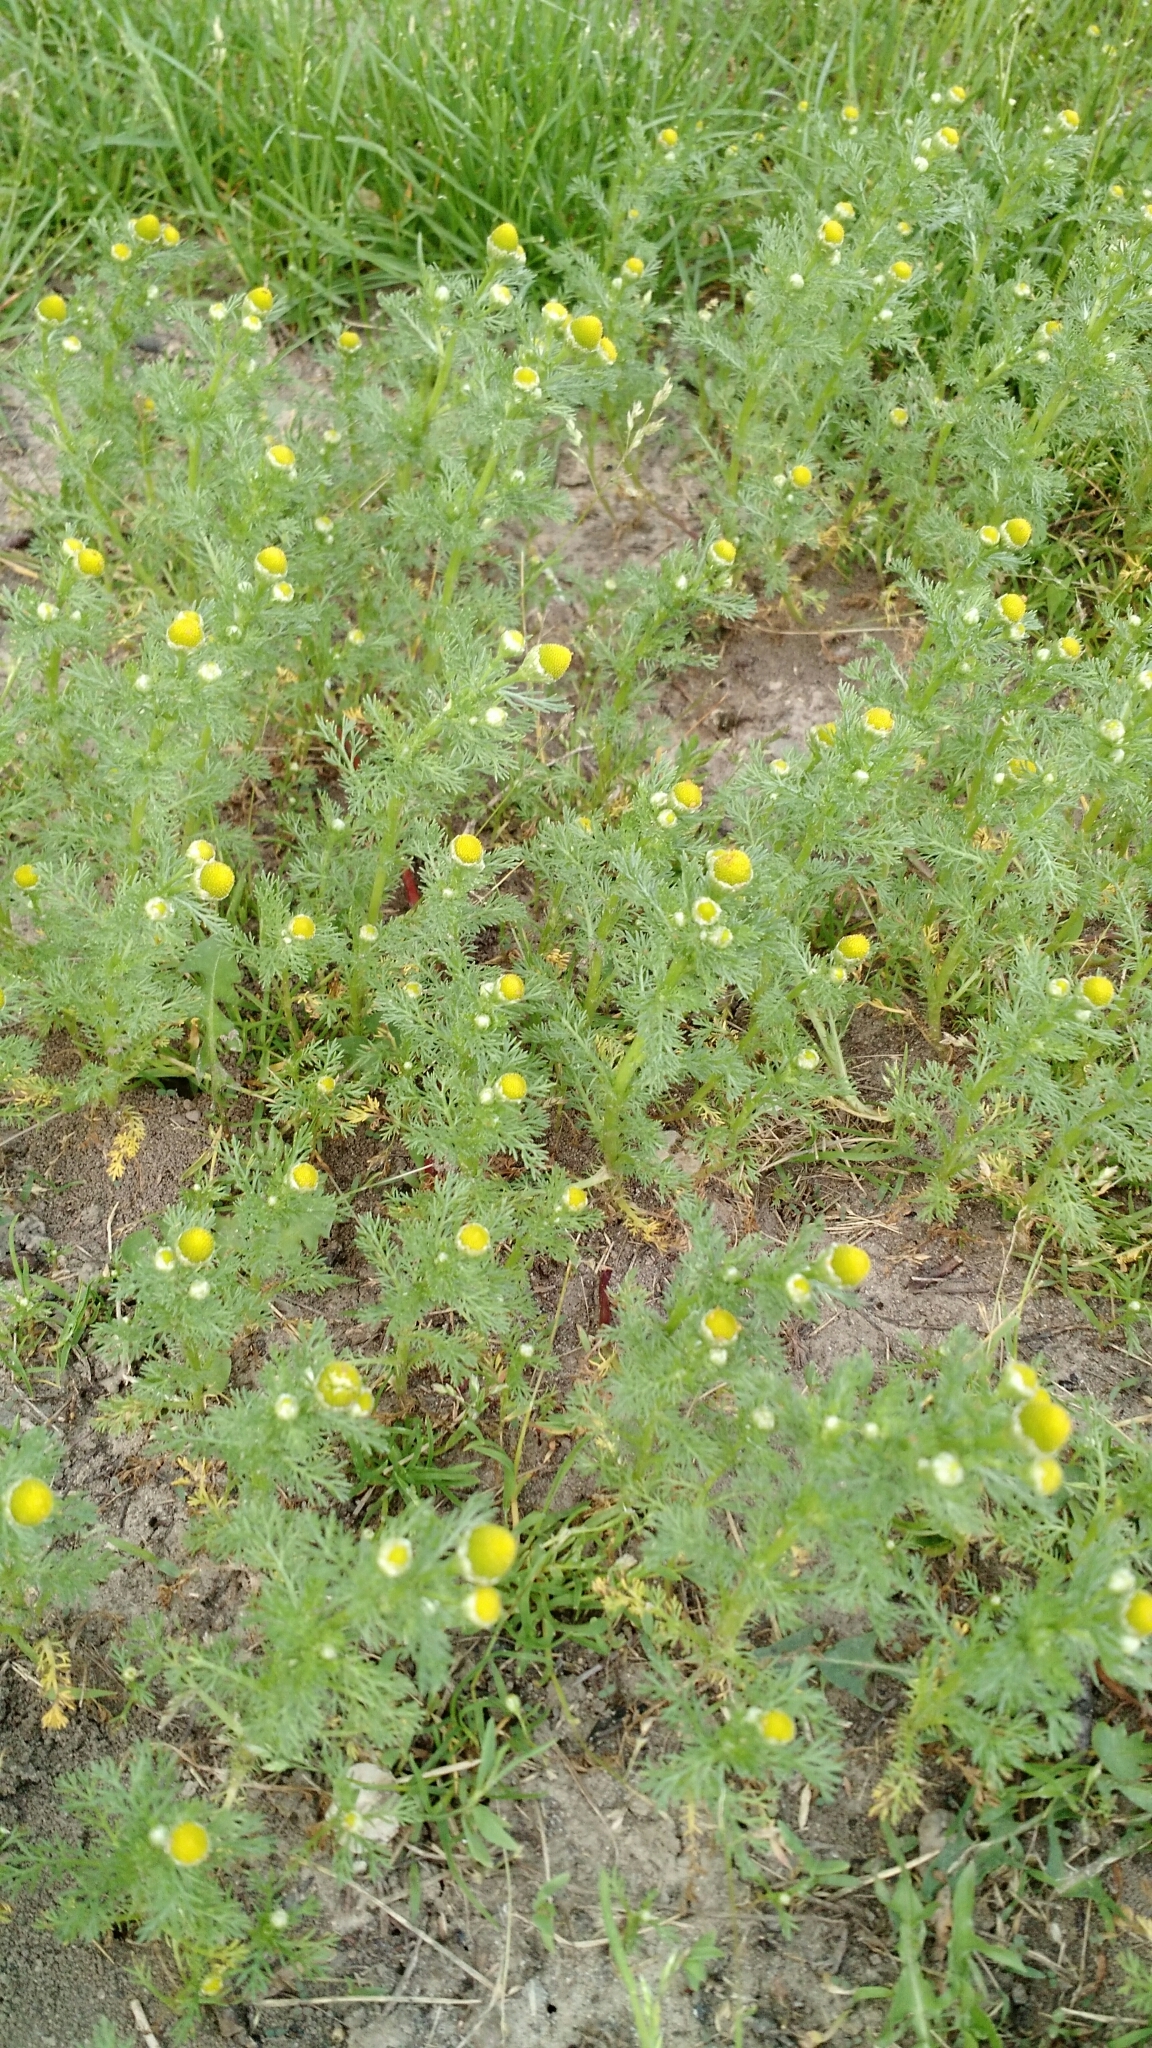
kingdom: Plantae
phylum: Tracheophyta
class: Magnoliopsida
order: Asterales
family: Asteraceae
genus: Matricaria
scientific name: Matricaria discoidea
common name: Disc mayweed
